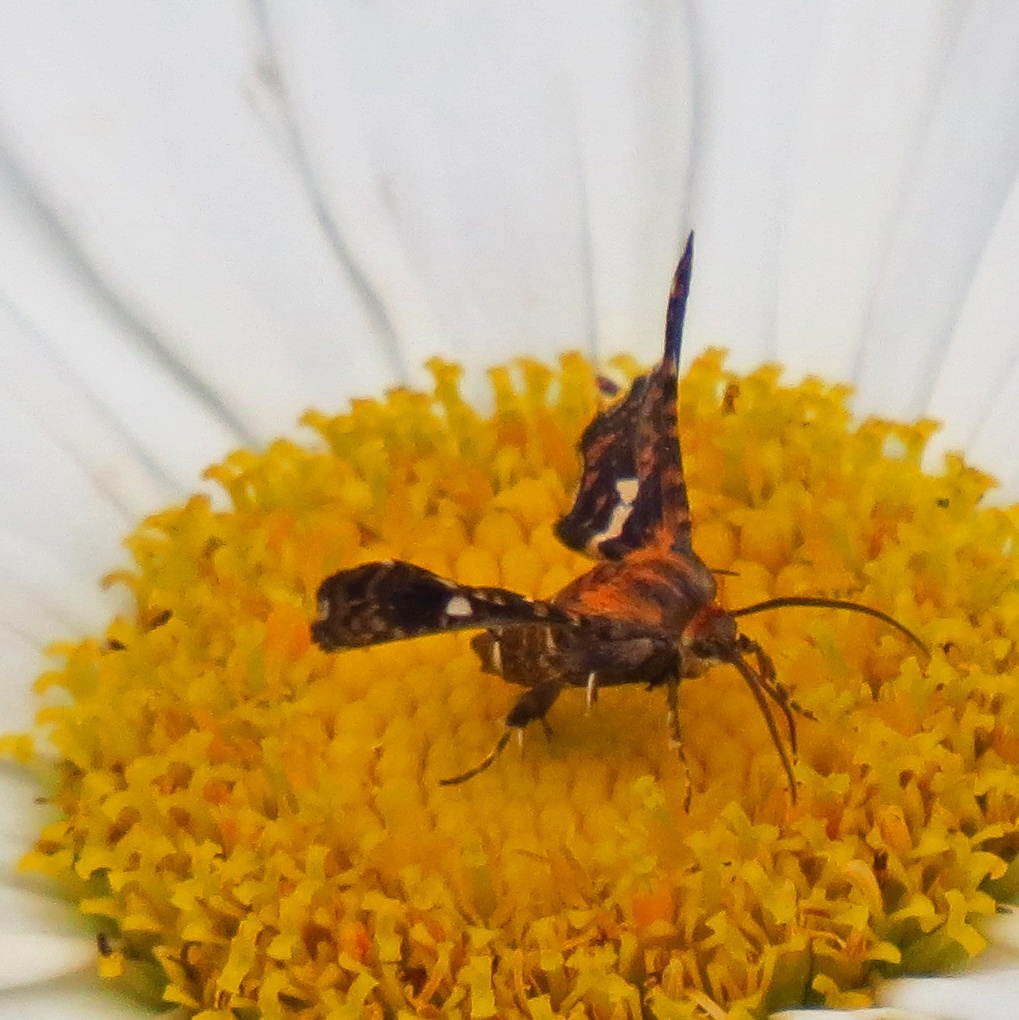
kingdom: Animalia
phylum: Arthropoda
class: Insecta
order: Lepidoptera
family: Thyrididae
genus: Thyris
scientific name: Thyris maculata
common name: Spotted thyris moth
